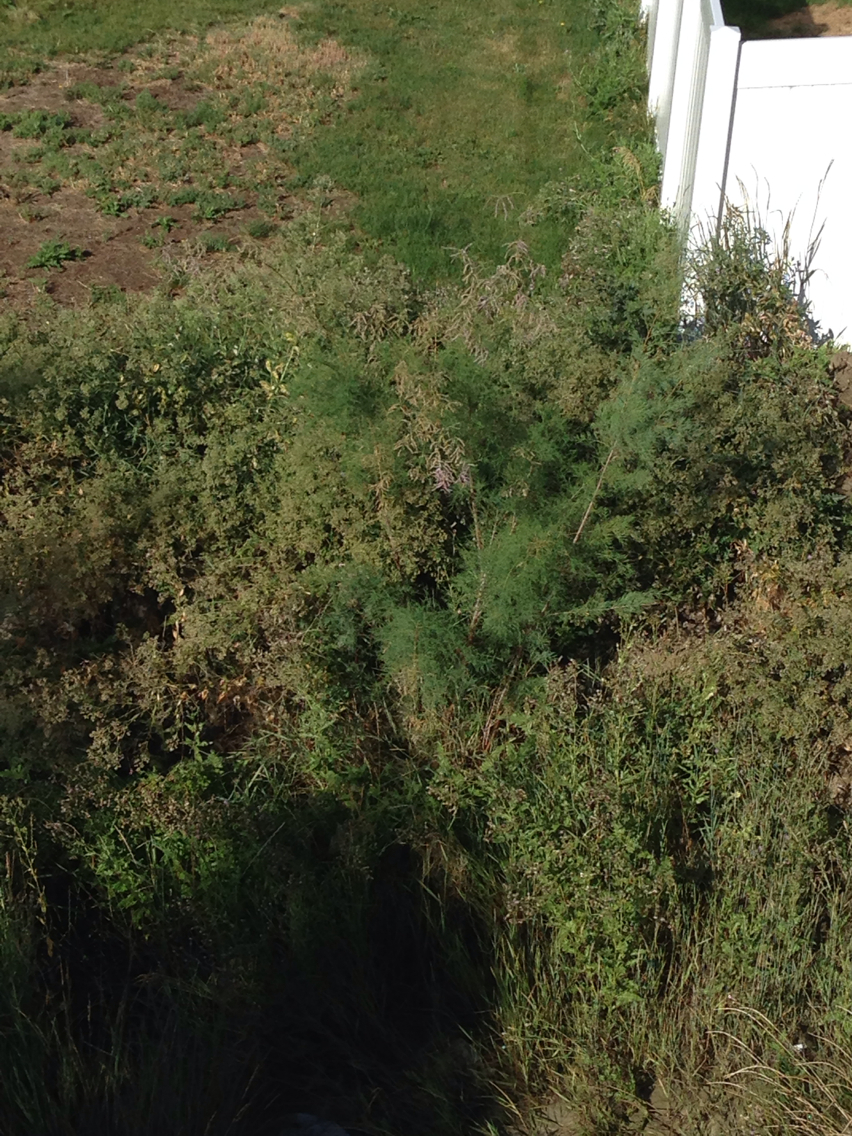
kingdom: Plantae
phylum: Tracheophyta
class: Magnoliopsida
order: Caryophyllales
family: Tamaricaceae
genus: Tamarix
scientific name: Tamarix ramosissima
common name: Pink tamarisk
